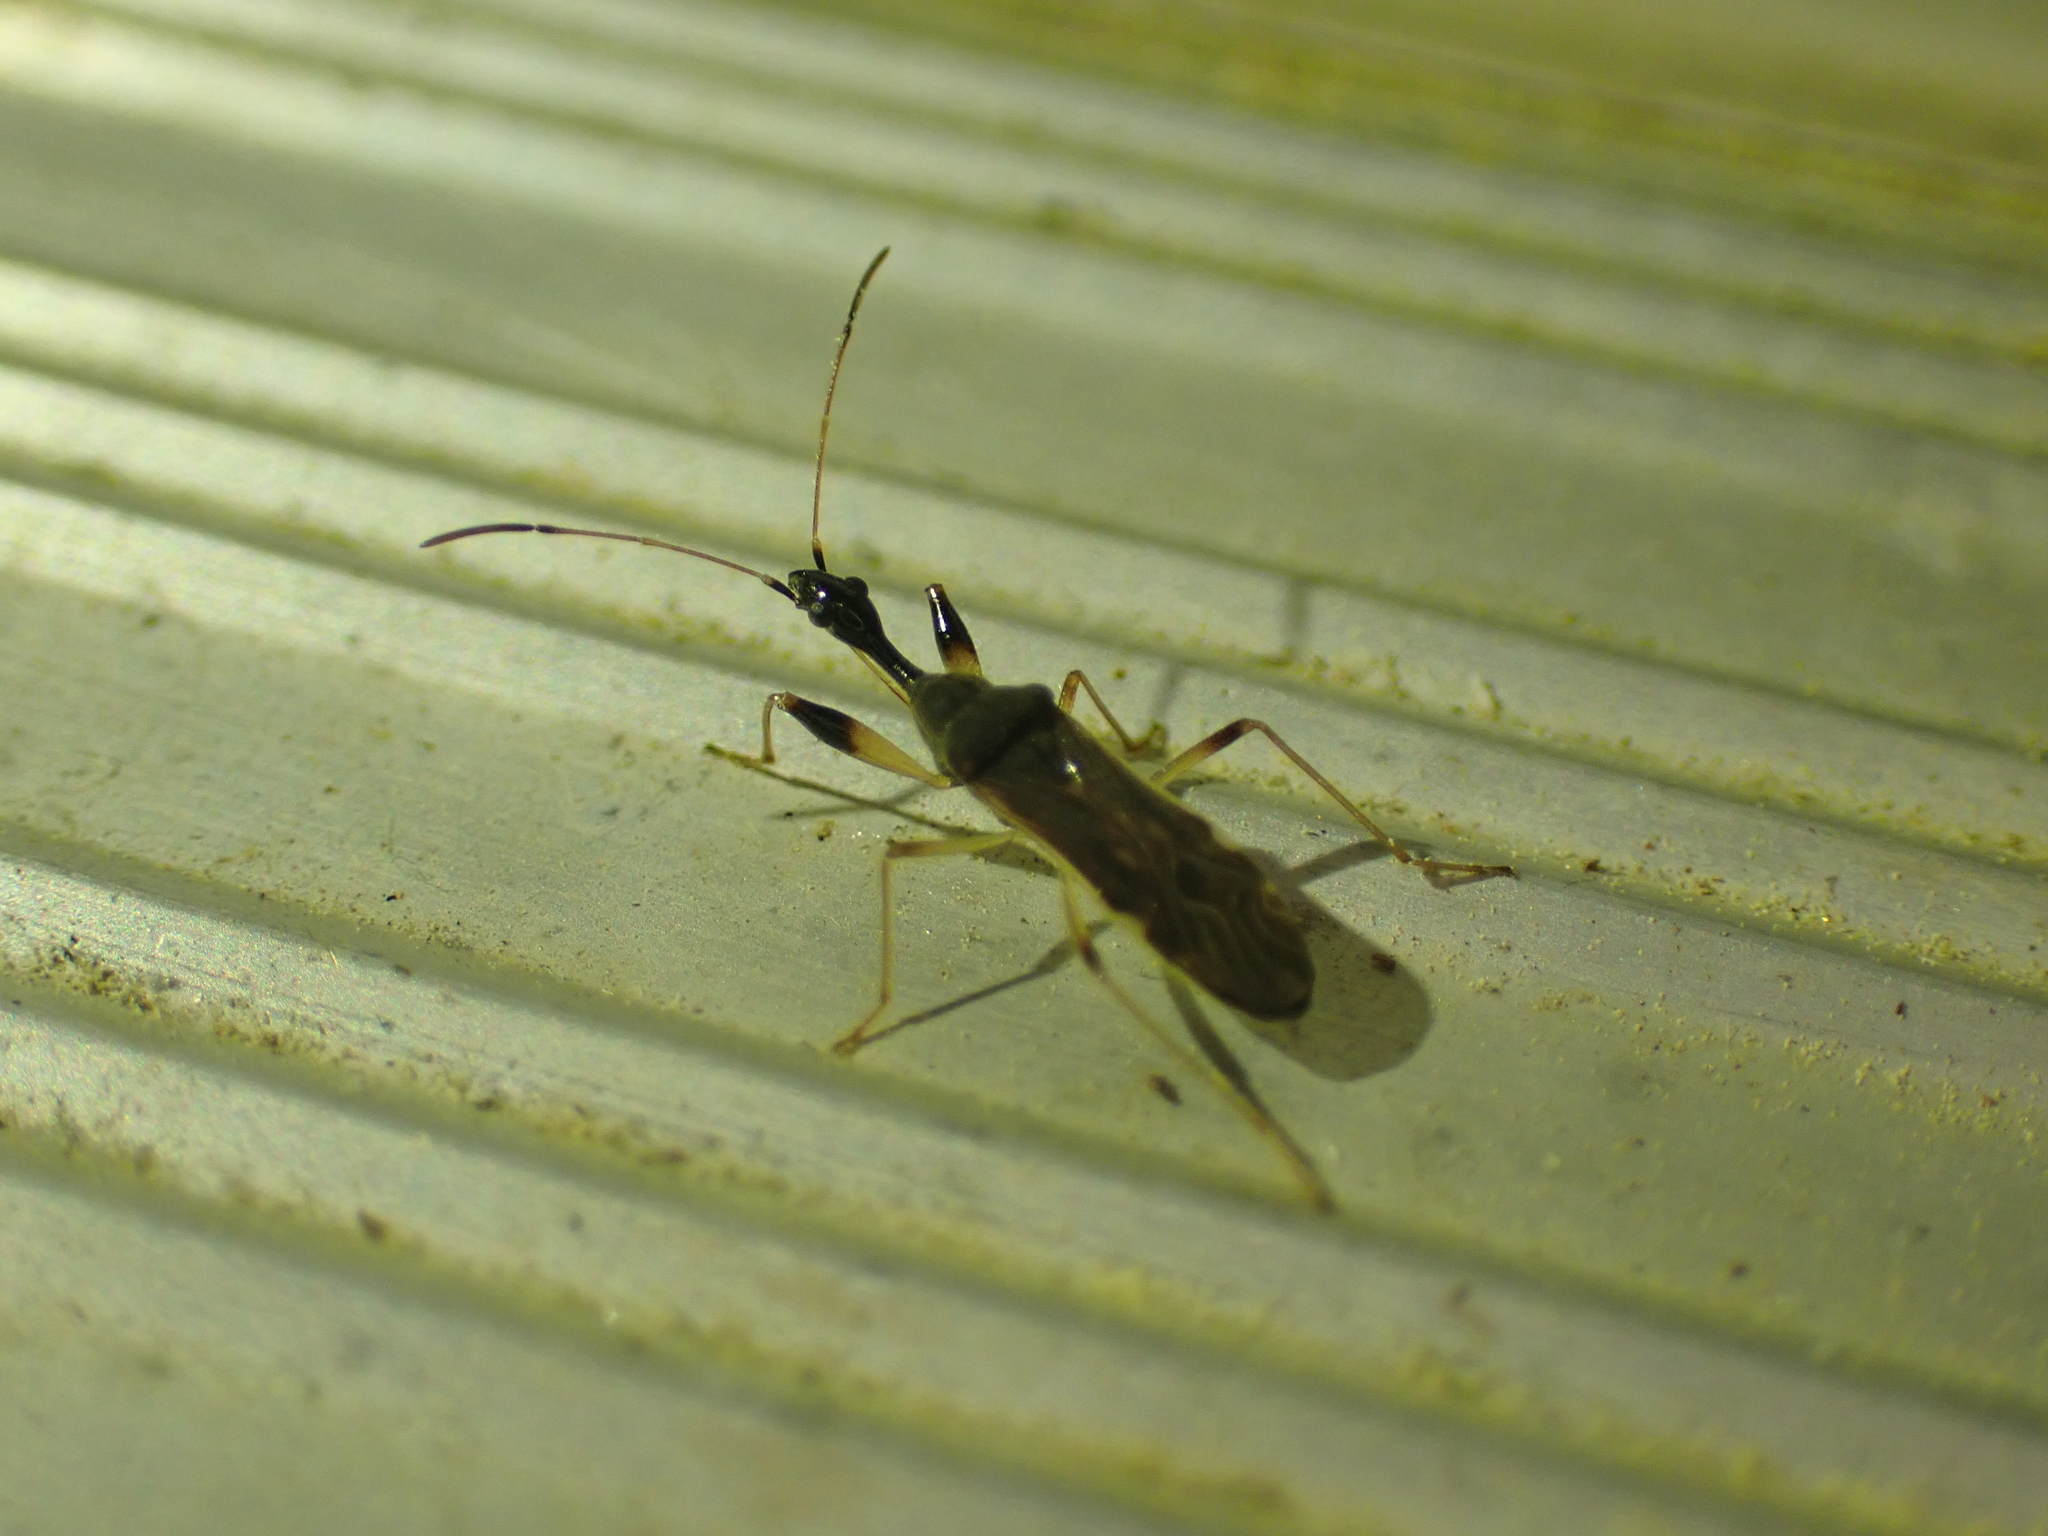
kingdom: Animalia
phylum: Arthropoda
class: Insecta
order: Hemiptera
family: Rhyparochromidae
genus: Myodocha
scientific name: Myodocha serripes
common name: Long-necked seed bug
